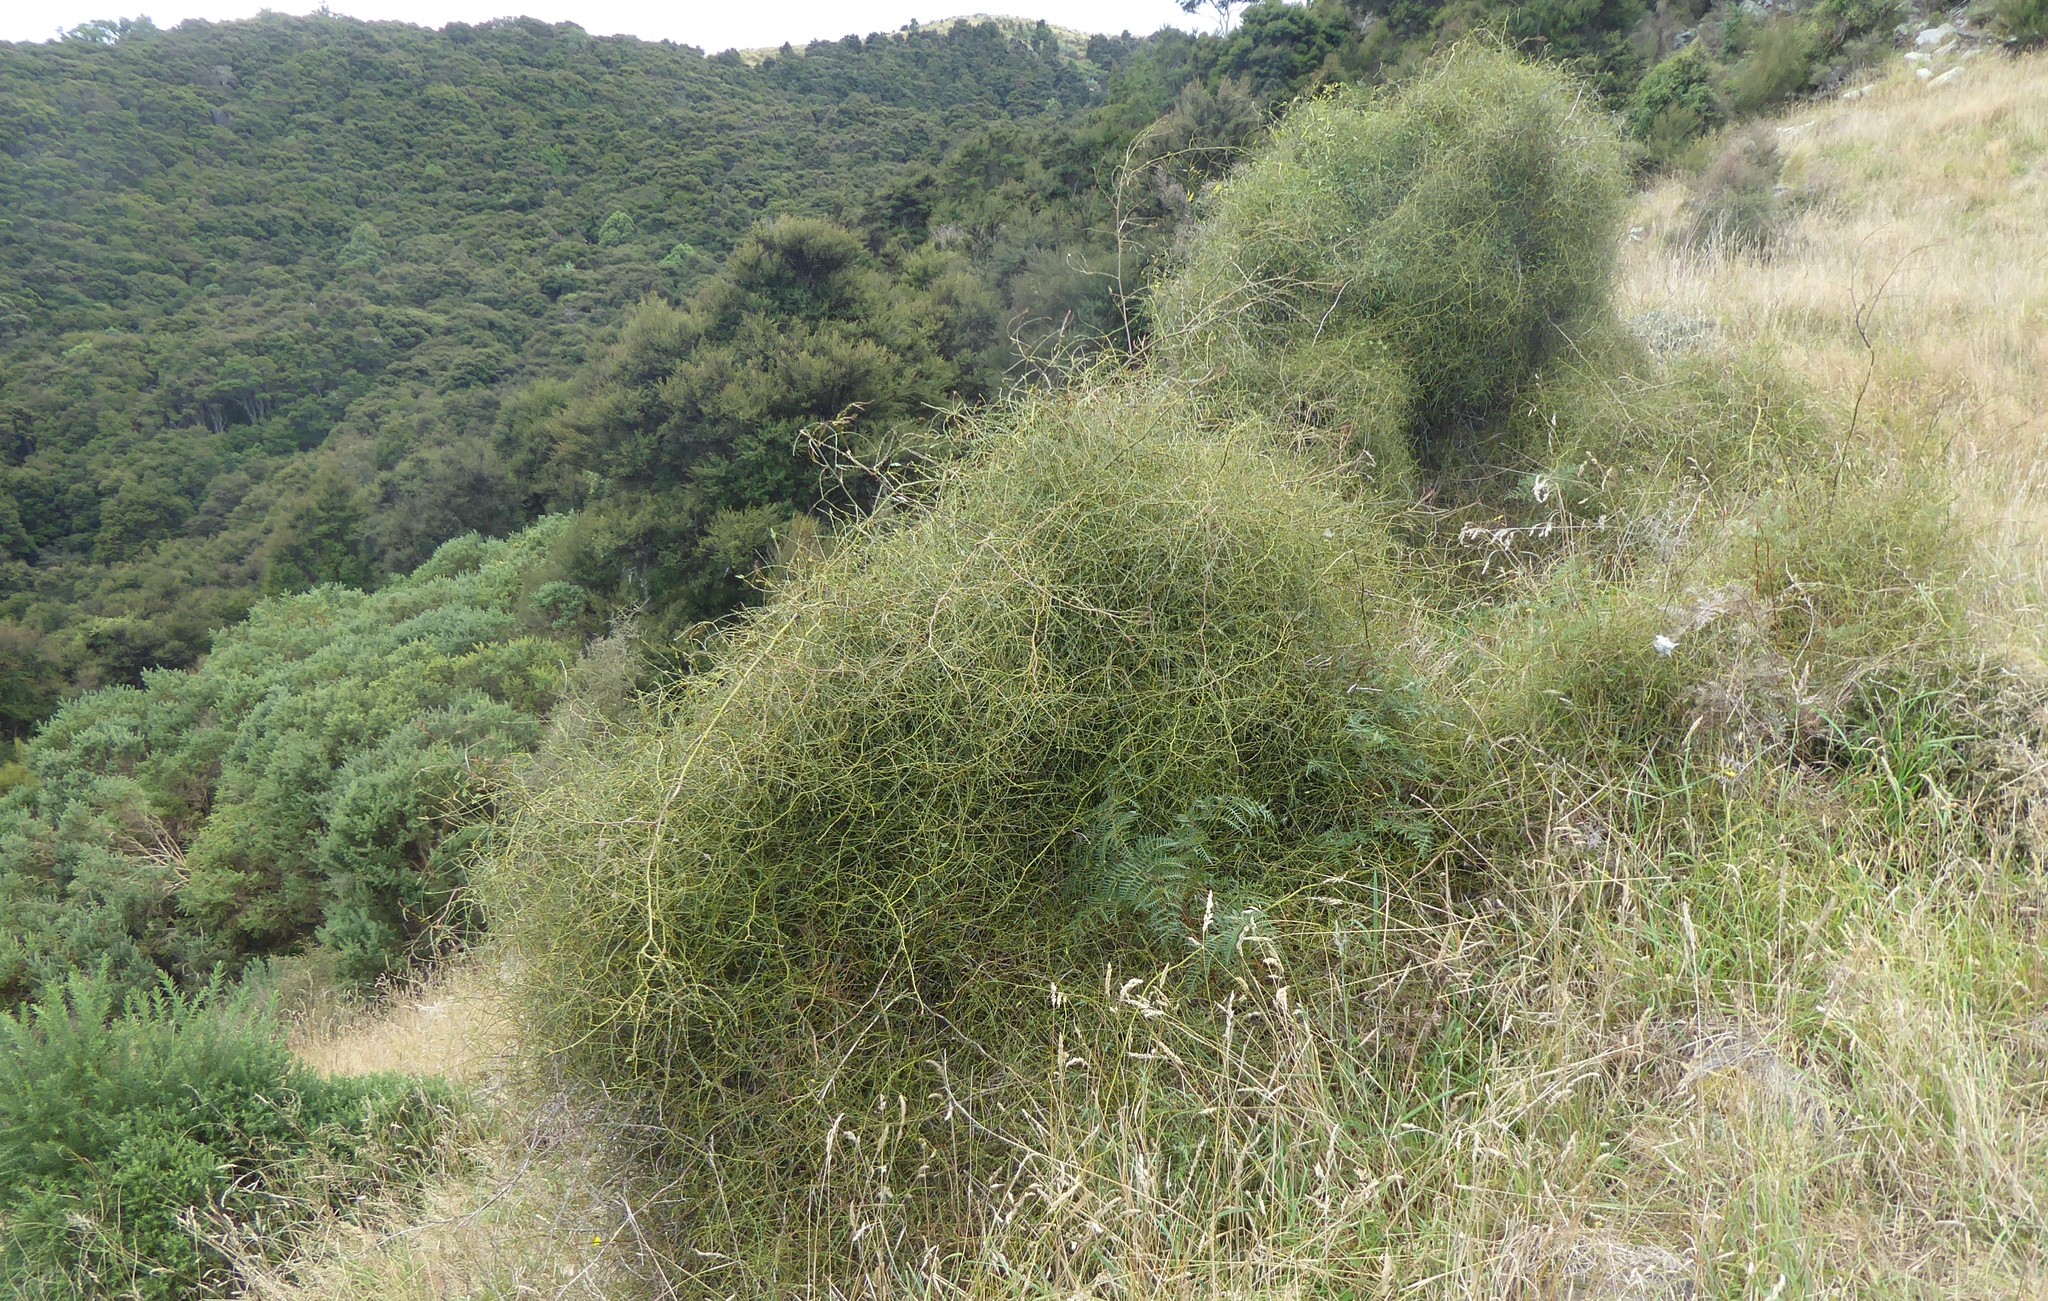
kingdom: Plantae
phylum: Tracheophyta
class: Magnoliopsida
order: Rosales
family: Rosaceae
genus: Rubus
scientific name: Rubus squarrosus
